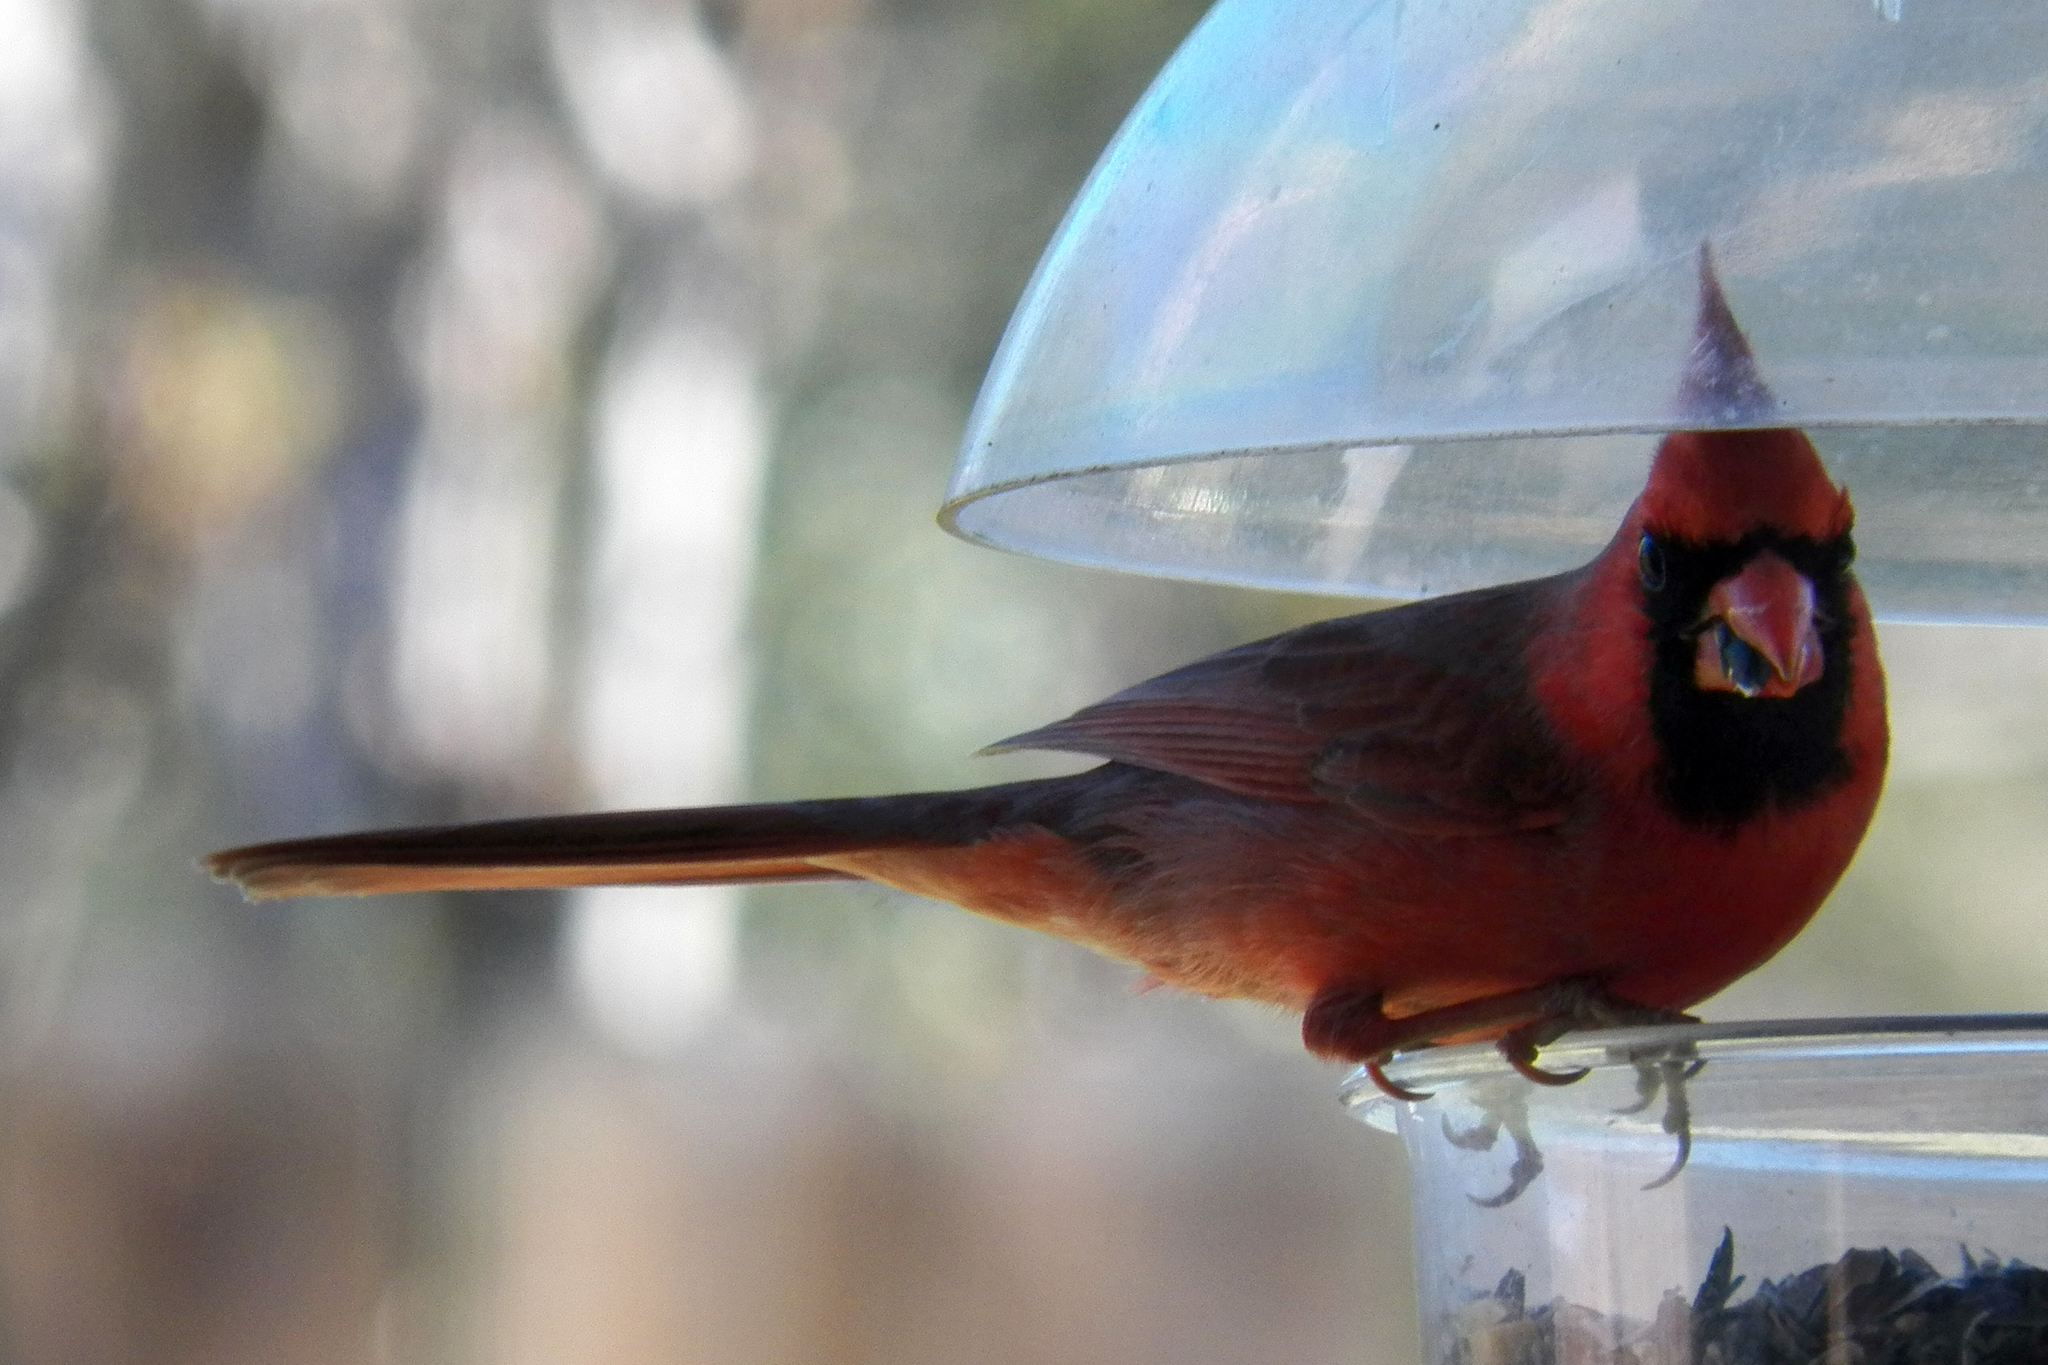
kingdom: Animalia
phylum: Chordata
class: Aves
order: Passeriformes
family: Cardinalidae
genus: Cardinalis
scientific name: Cardinalis cardinalis
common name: Northern cardinal
